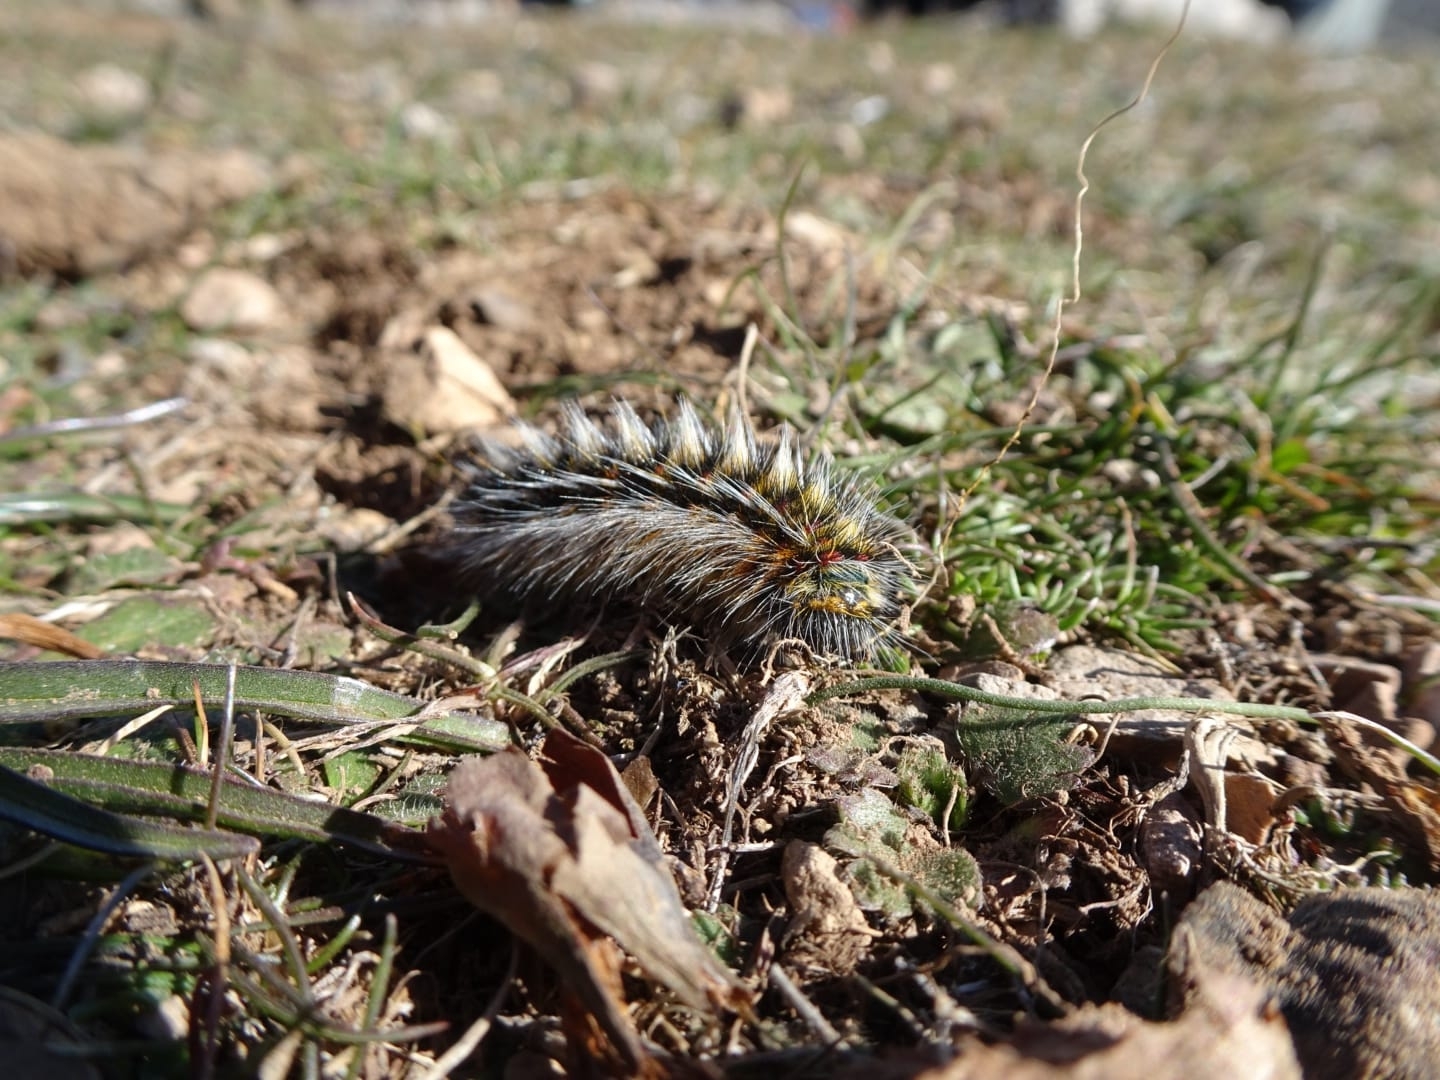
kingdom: Animalia
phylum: Arthropoda
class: Insecta
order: Lepidoptera
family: Lasiocampidae
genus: Chondrostega
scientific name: Chondrostega
